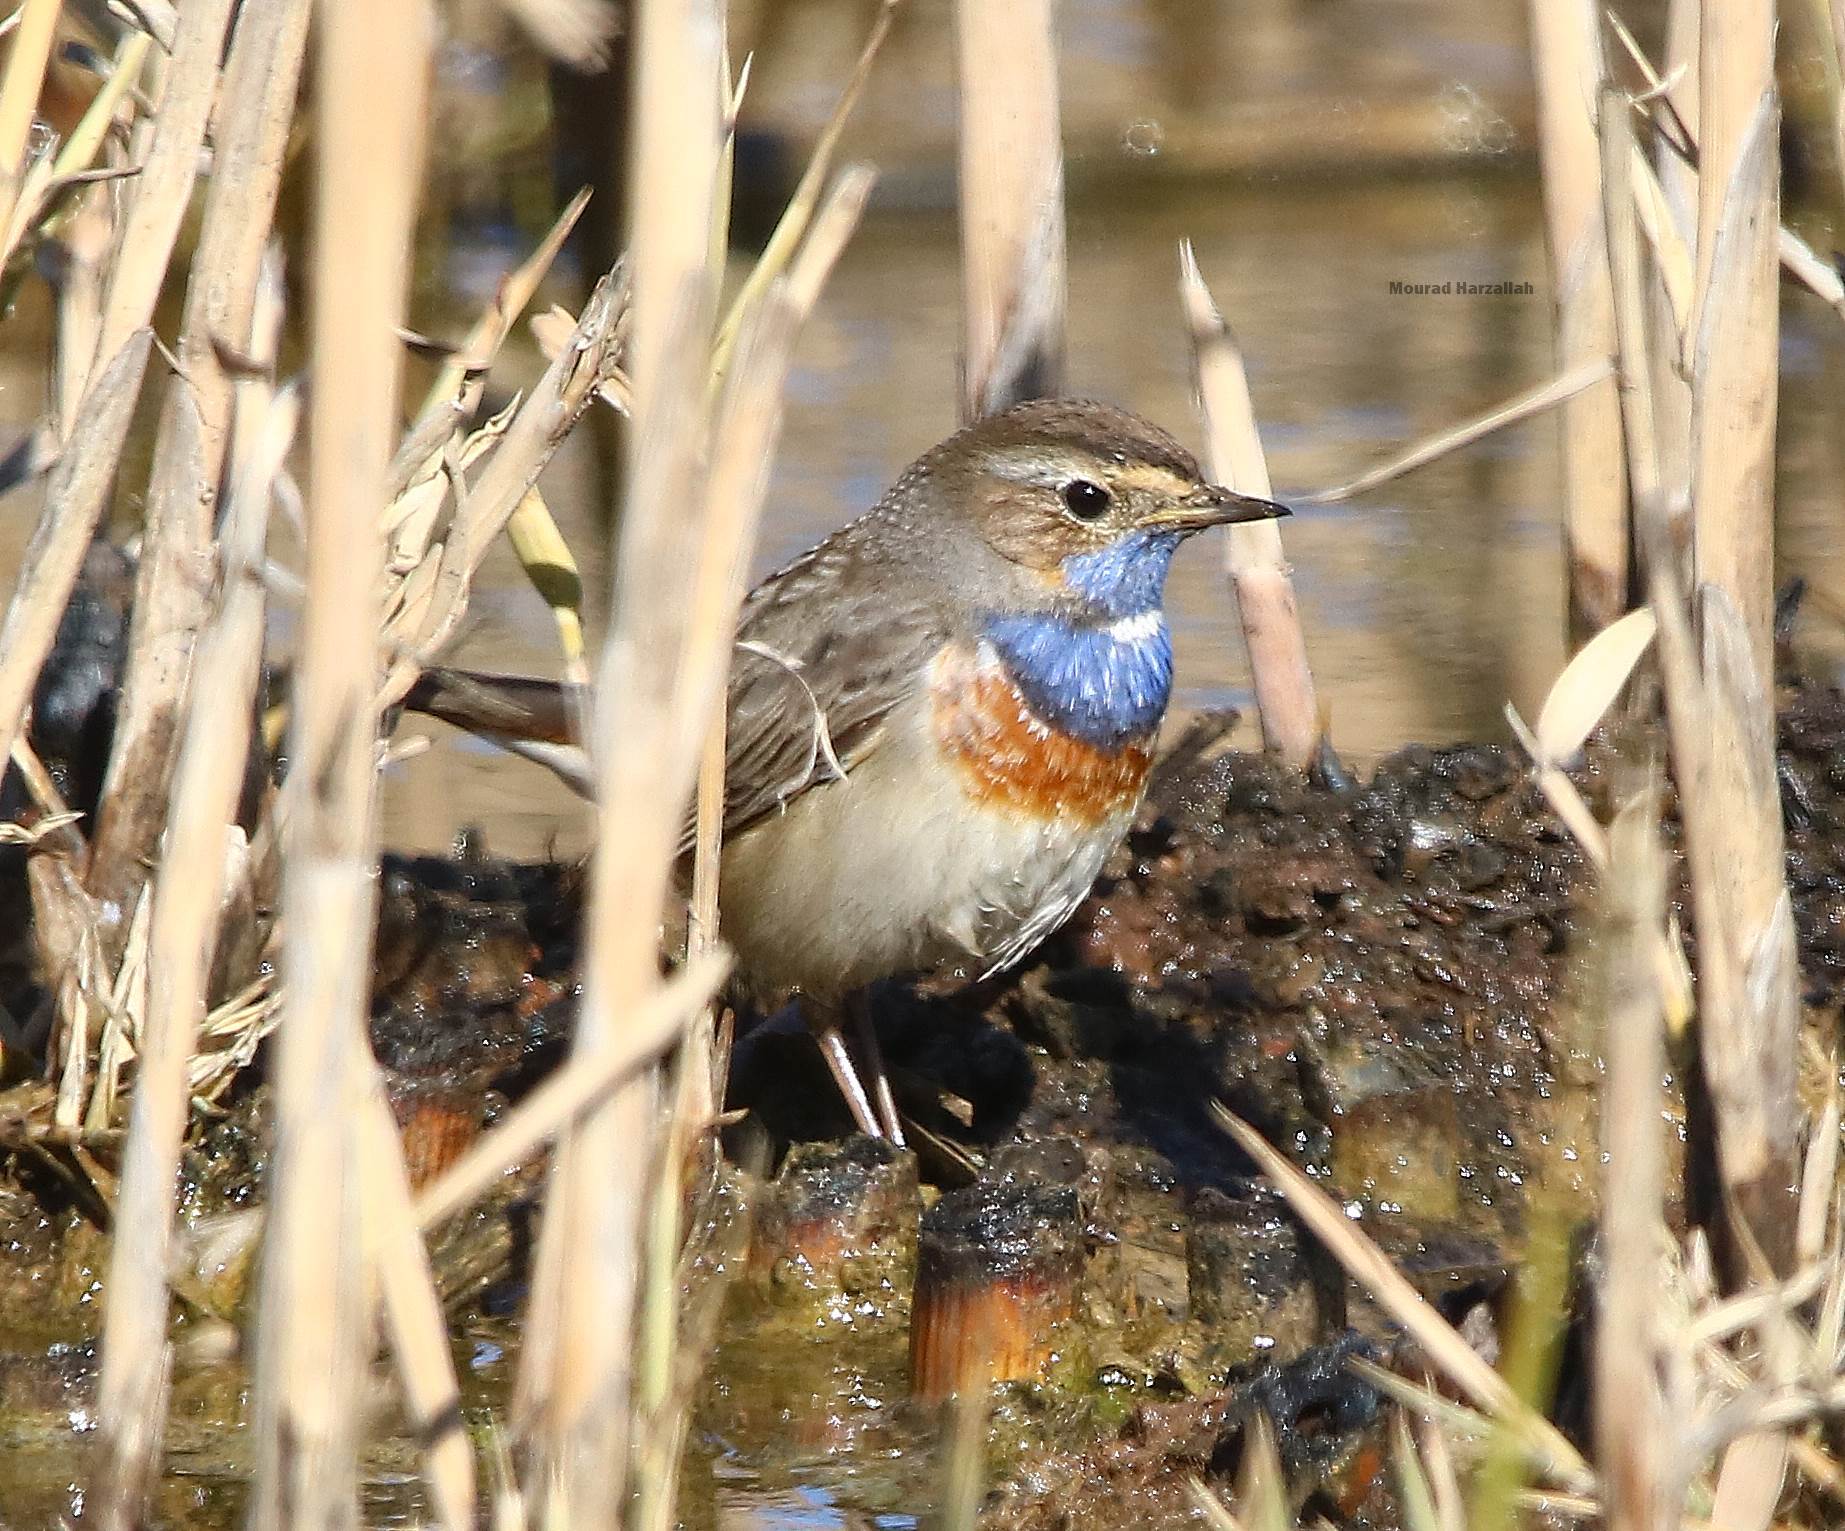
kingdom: Animalia
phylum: Chordata
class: Aves
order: Passeriformes
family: Muscicapidae
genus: Luscinia
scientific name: Luscinia svecica
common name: Bluethroat
